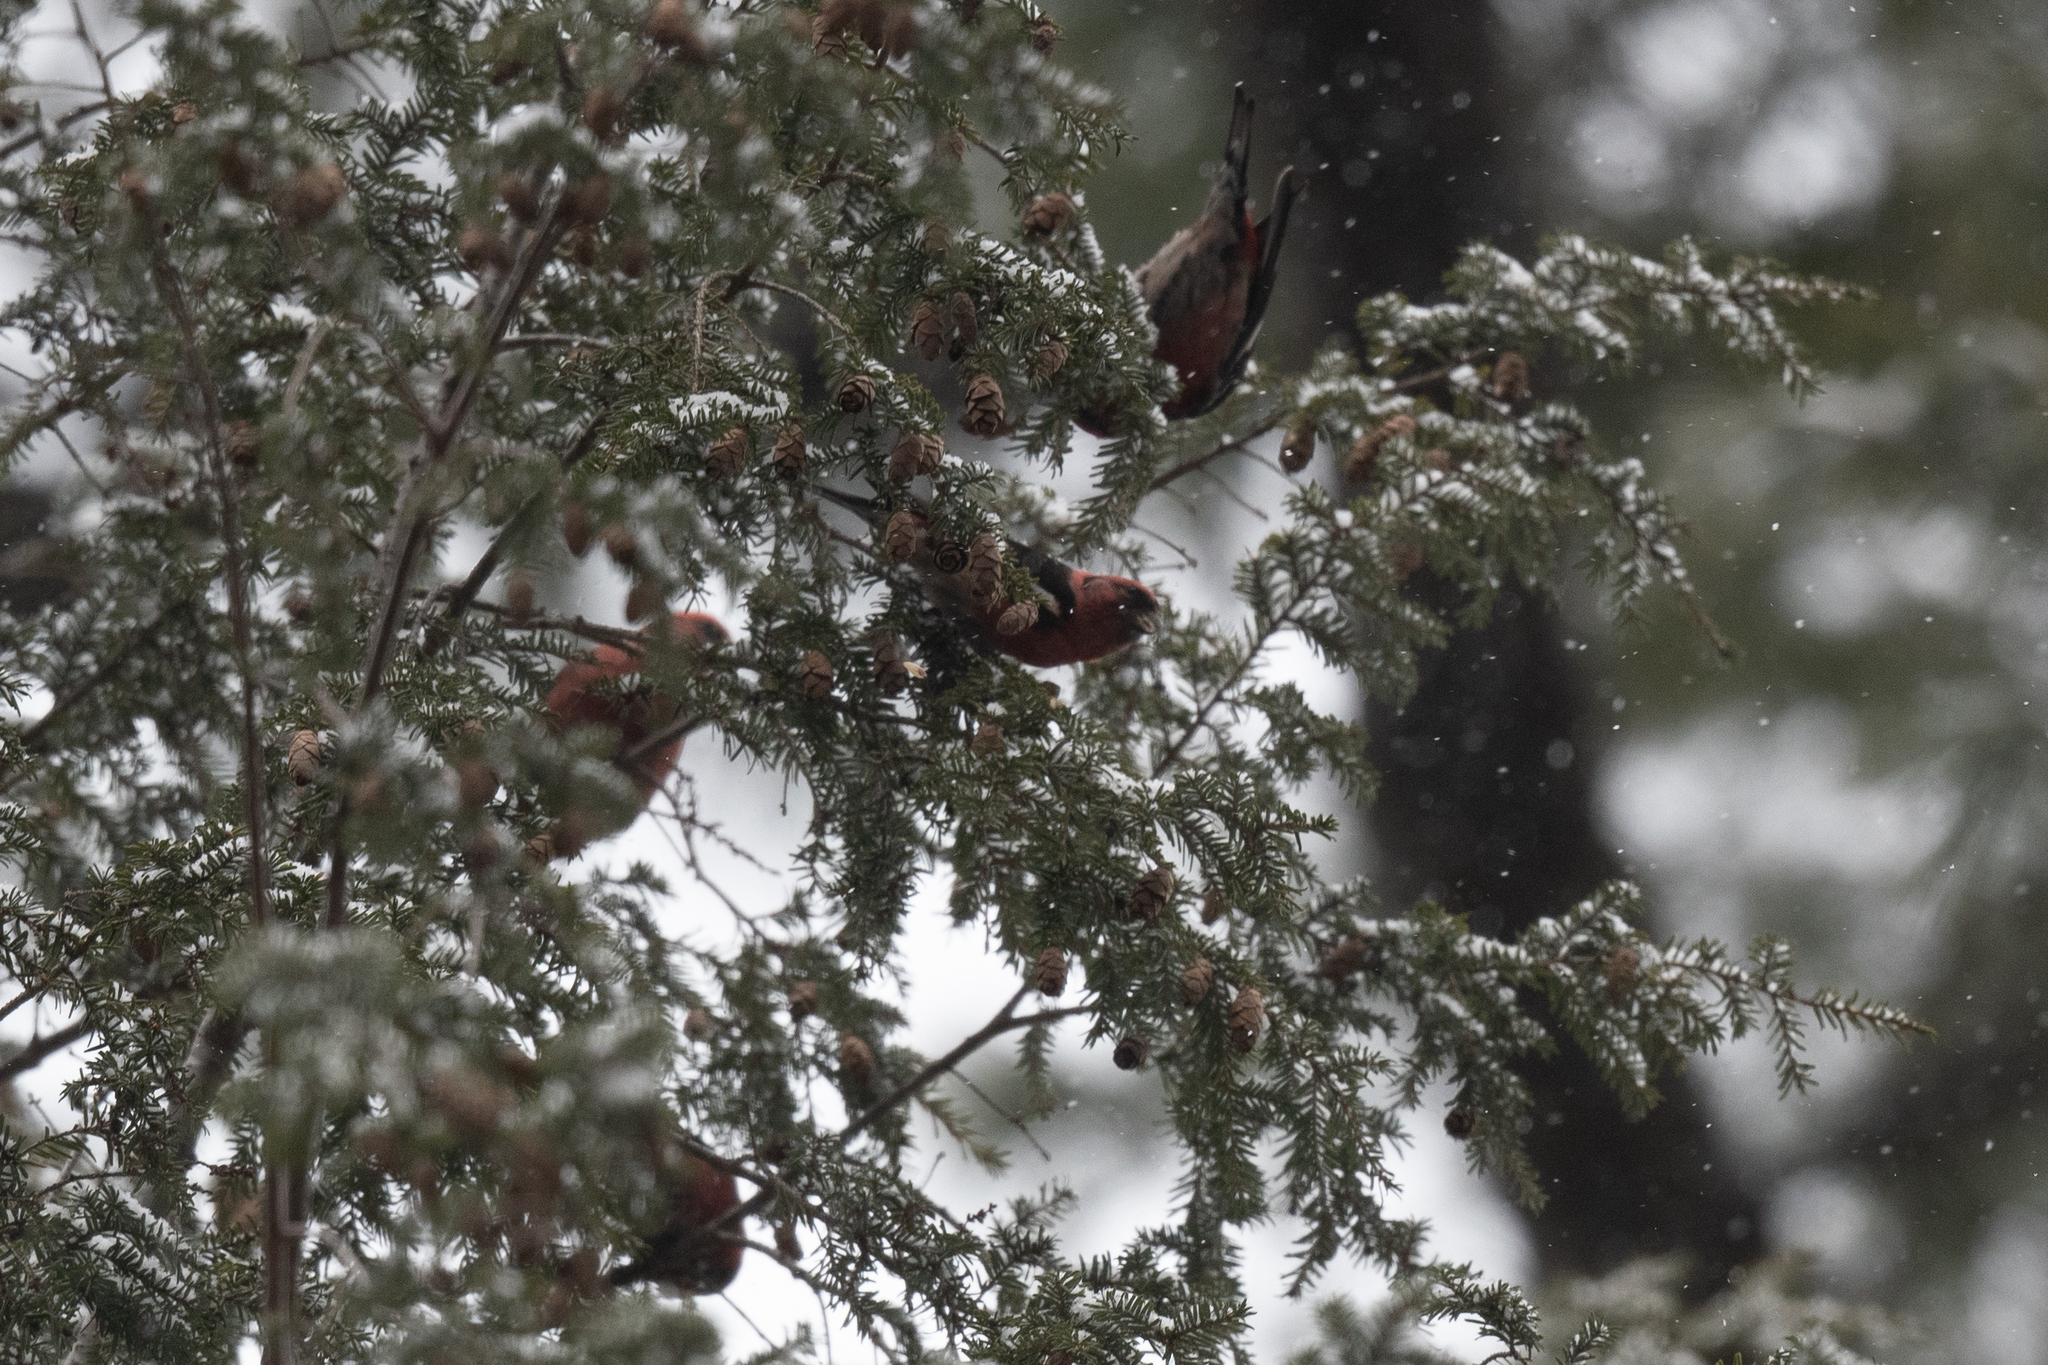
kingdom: Animalia
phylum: Chordata
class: Aves
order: Passeriformes
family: Fringillidae
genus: Loxia
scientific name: Loxia leucoptera
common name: Two-barred crossbill
